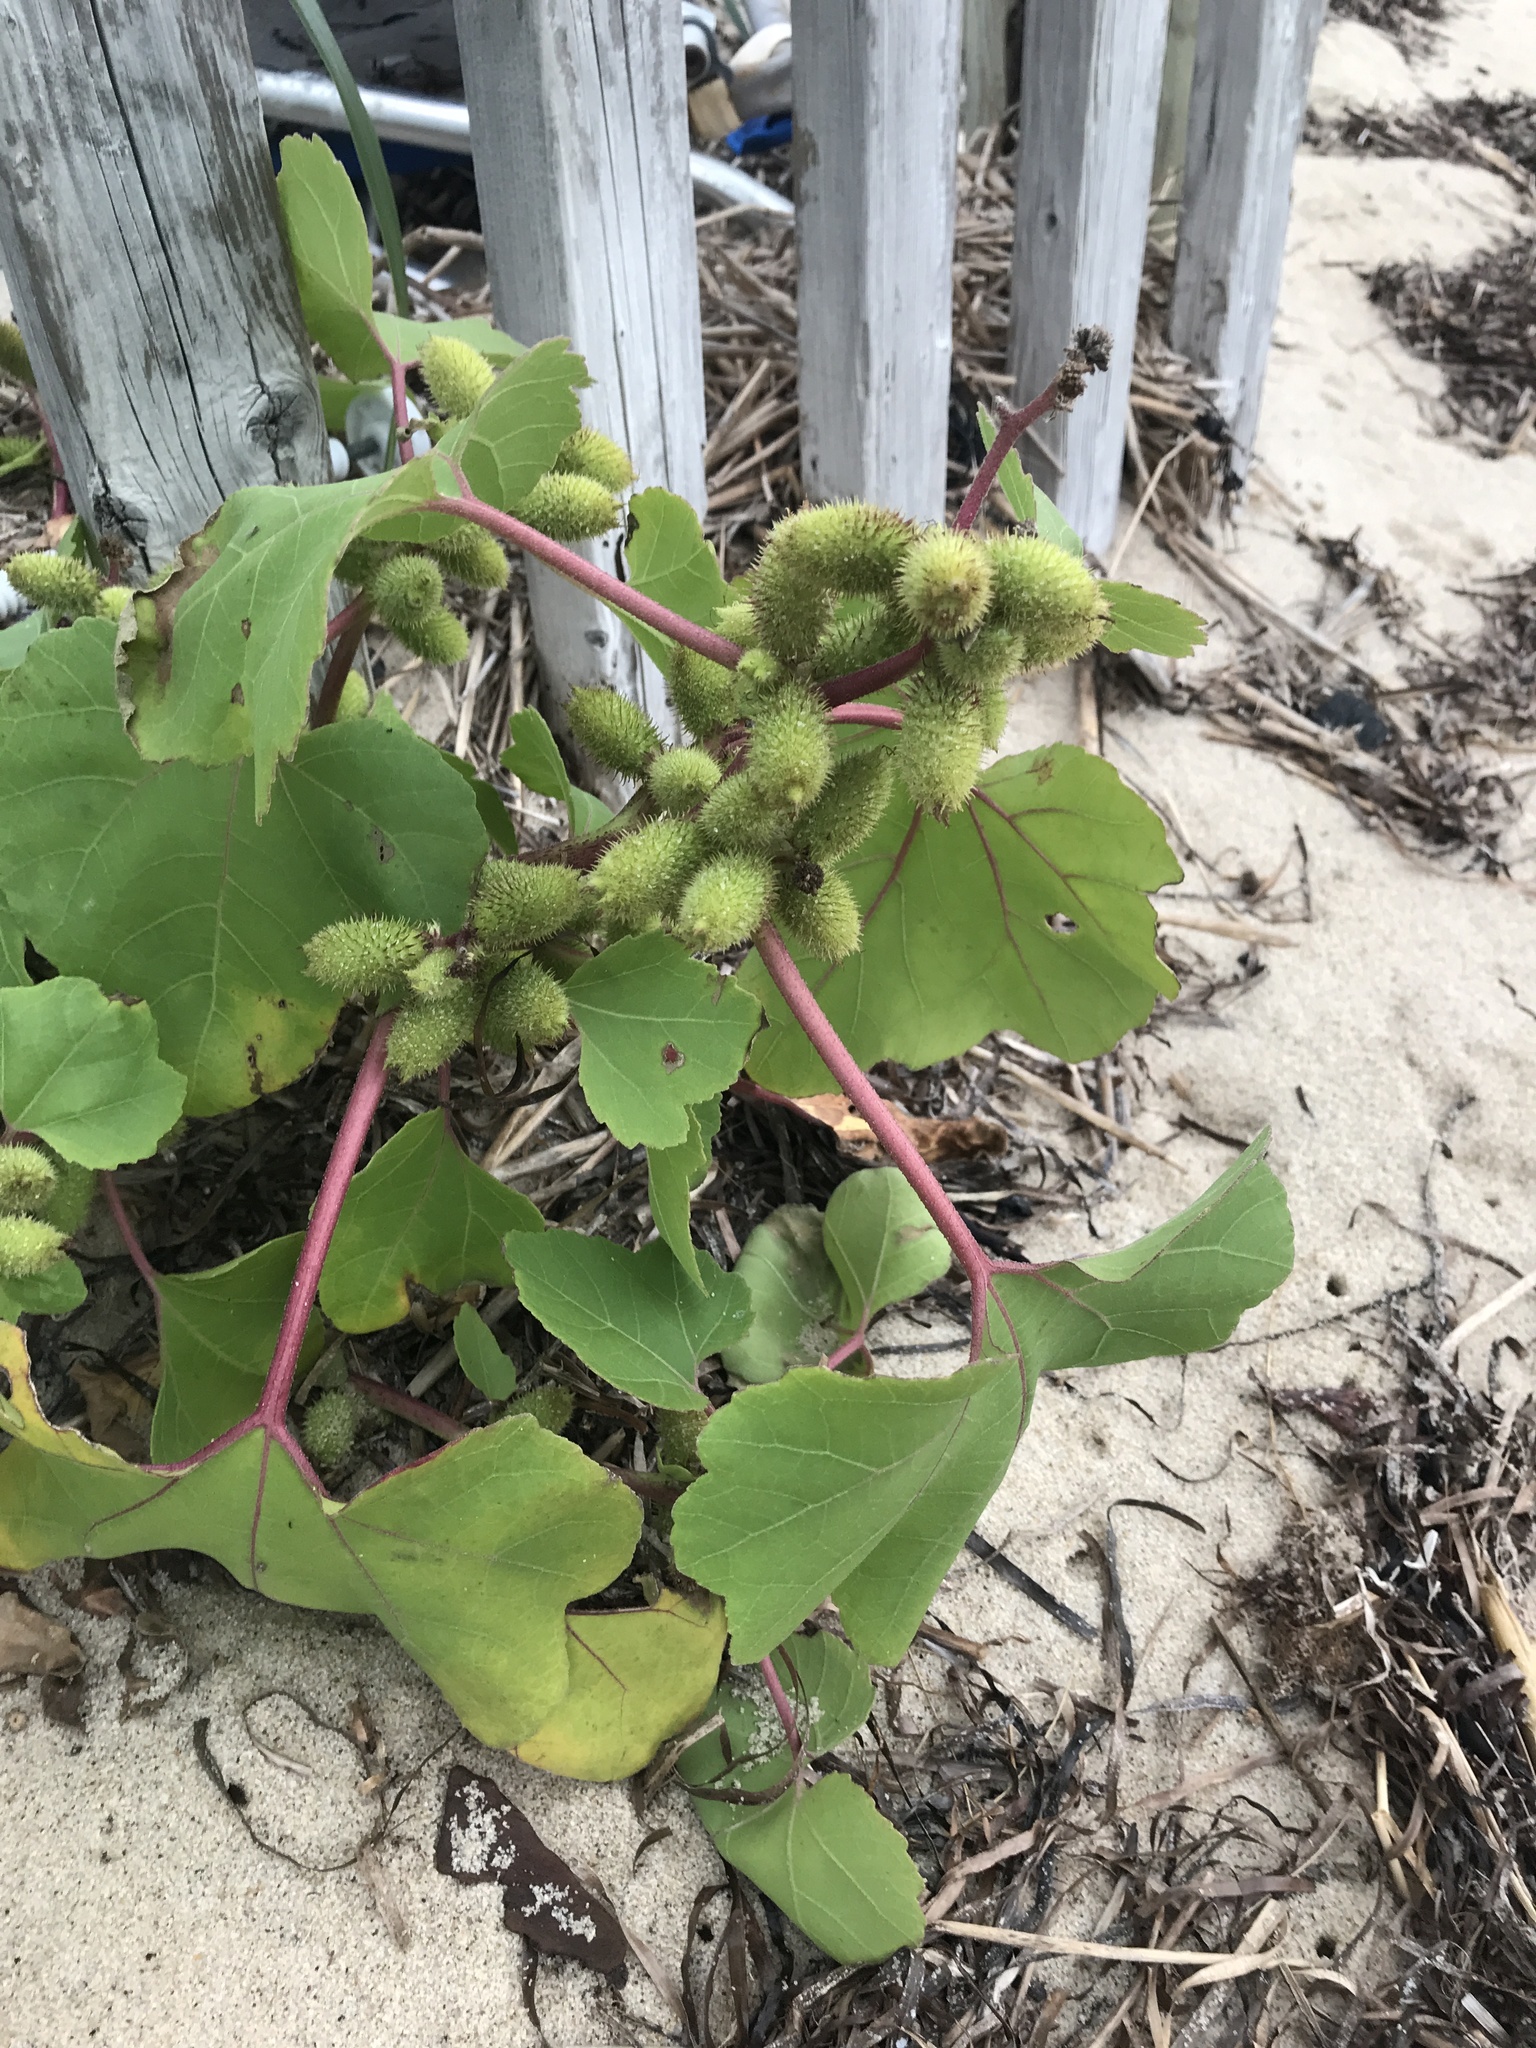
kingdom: Plantae
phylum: Tracheophyta
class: Magnoliopsida
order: Asterales
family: Asteraceae
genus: Xanthium
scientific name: Xanthium strumarium
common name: Rough cocklebur
